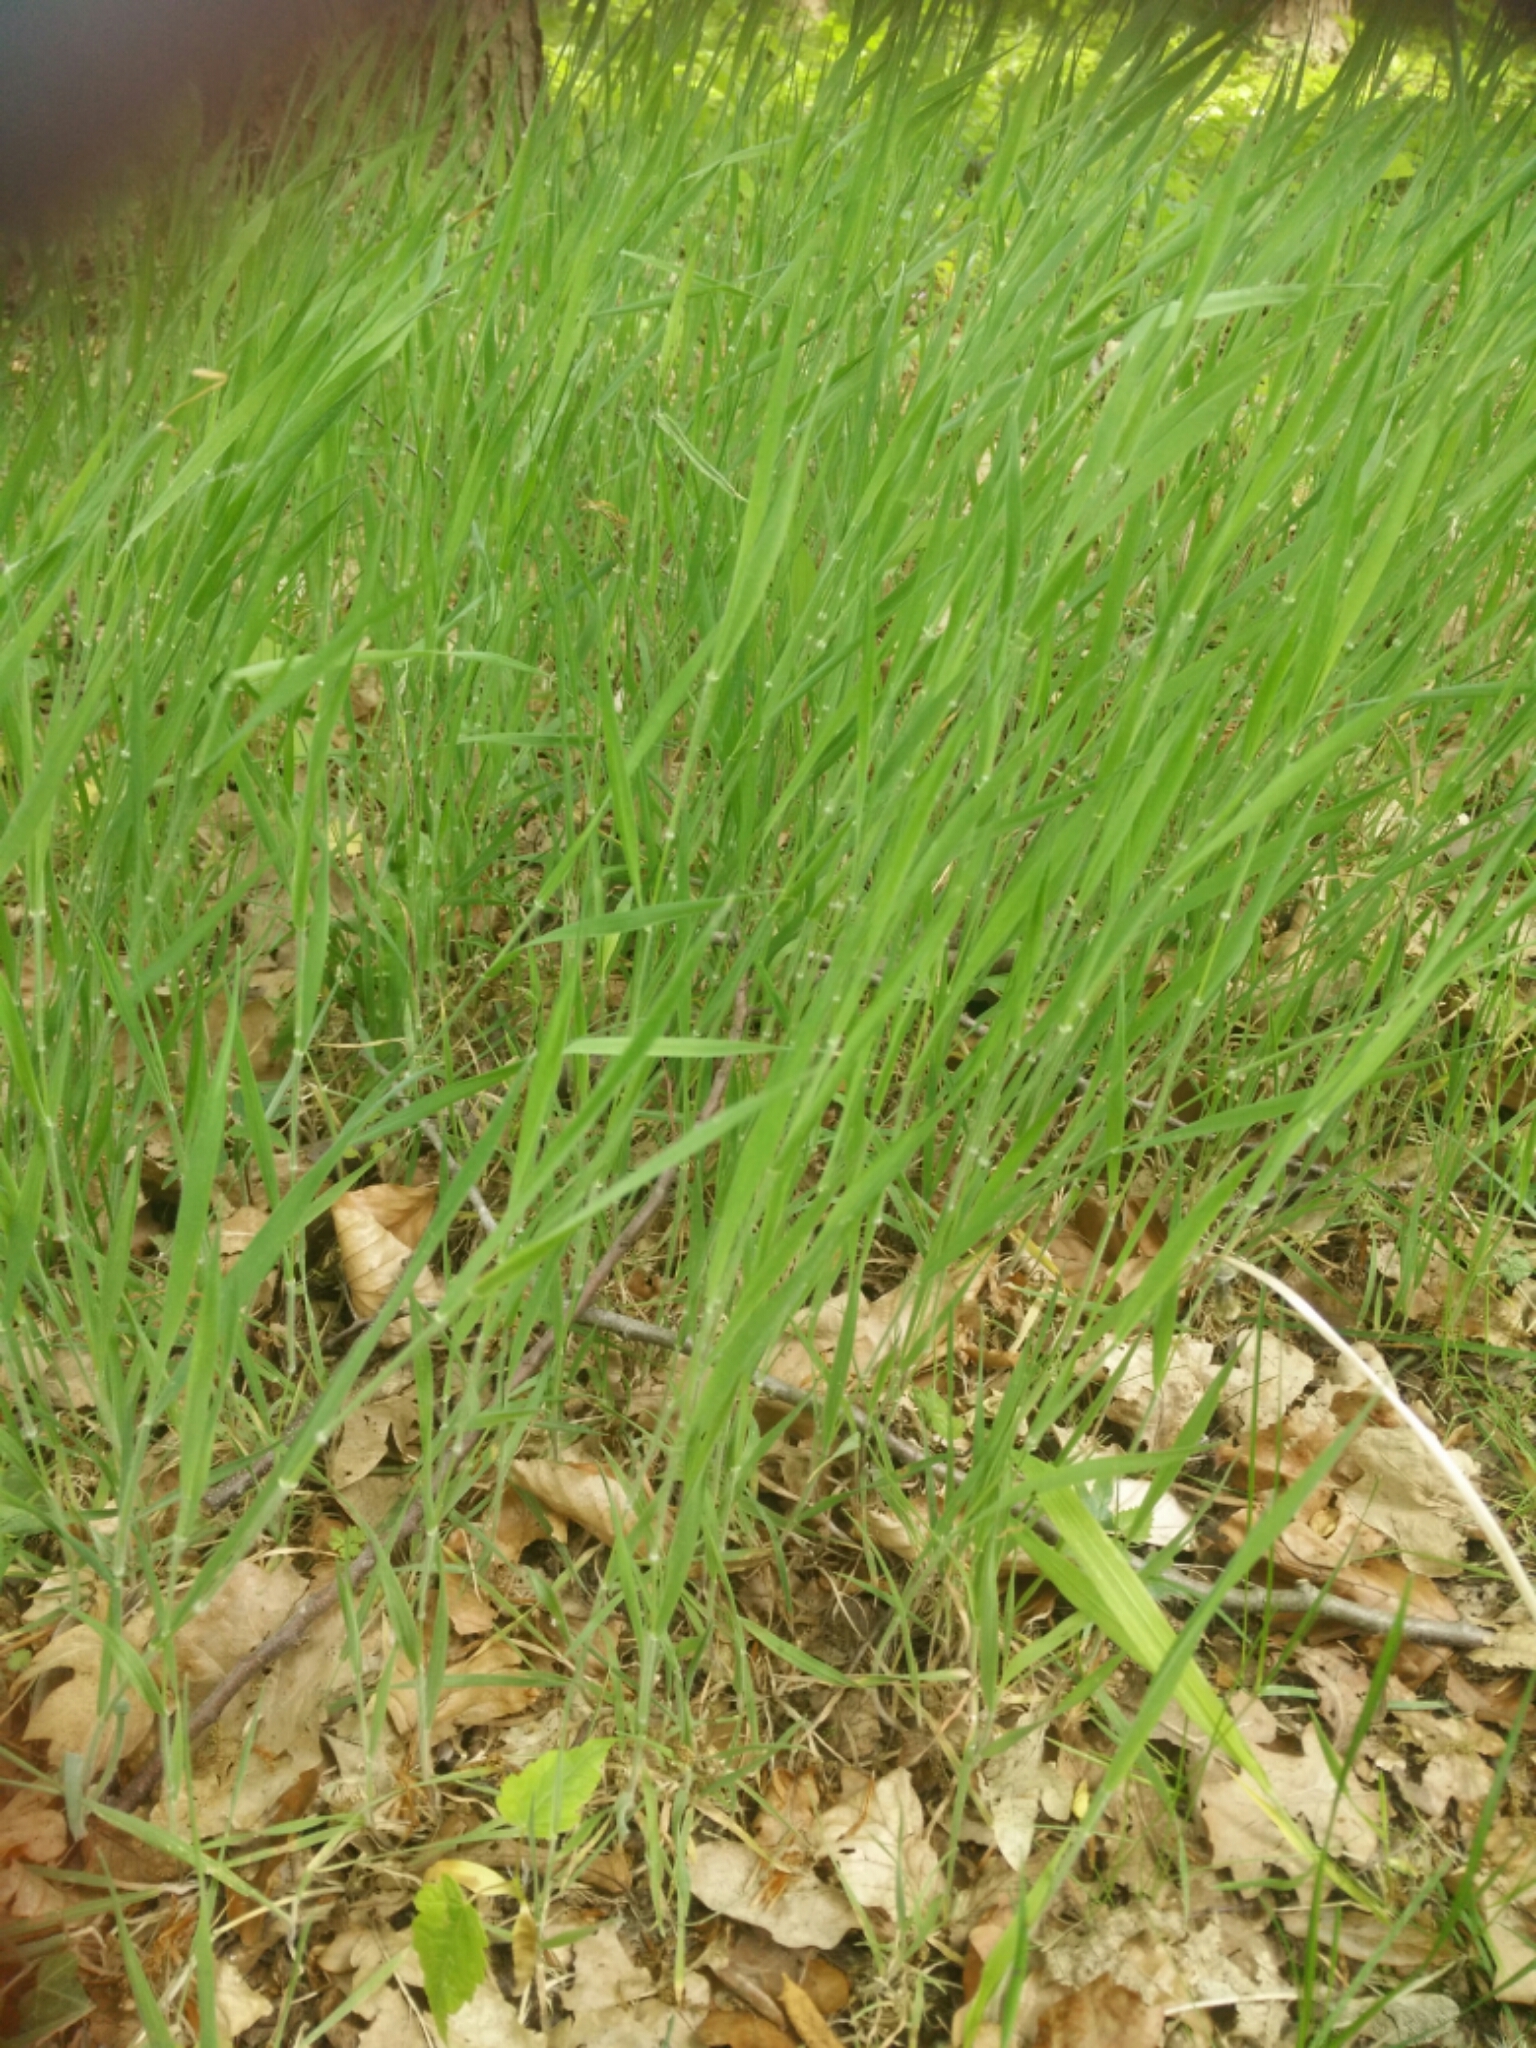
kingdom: Plantae
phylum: Tracheophyta
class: Liliopsida
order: Poales
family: Poaceae
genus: Holcus
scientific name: Holcus mollis
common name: Creeping velvetgrass
